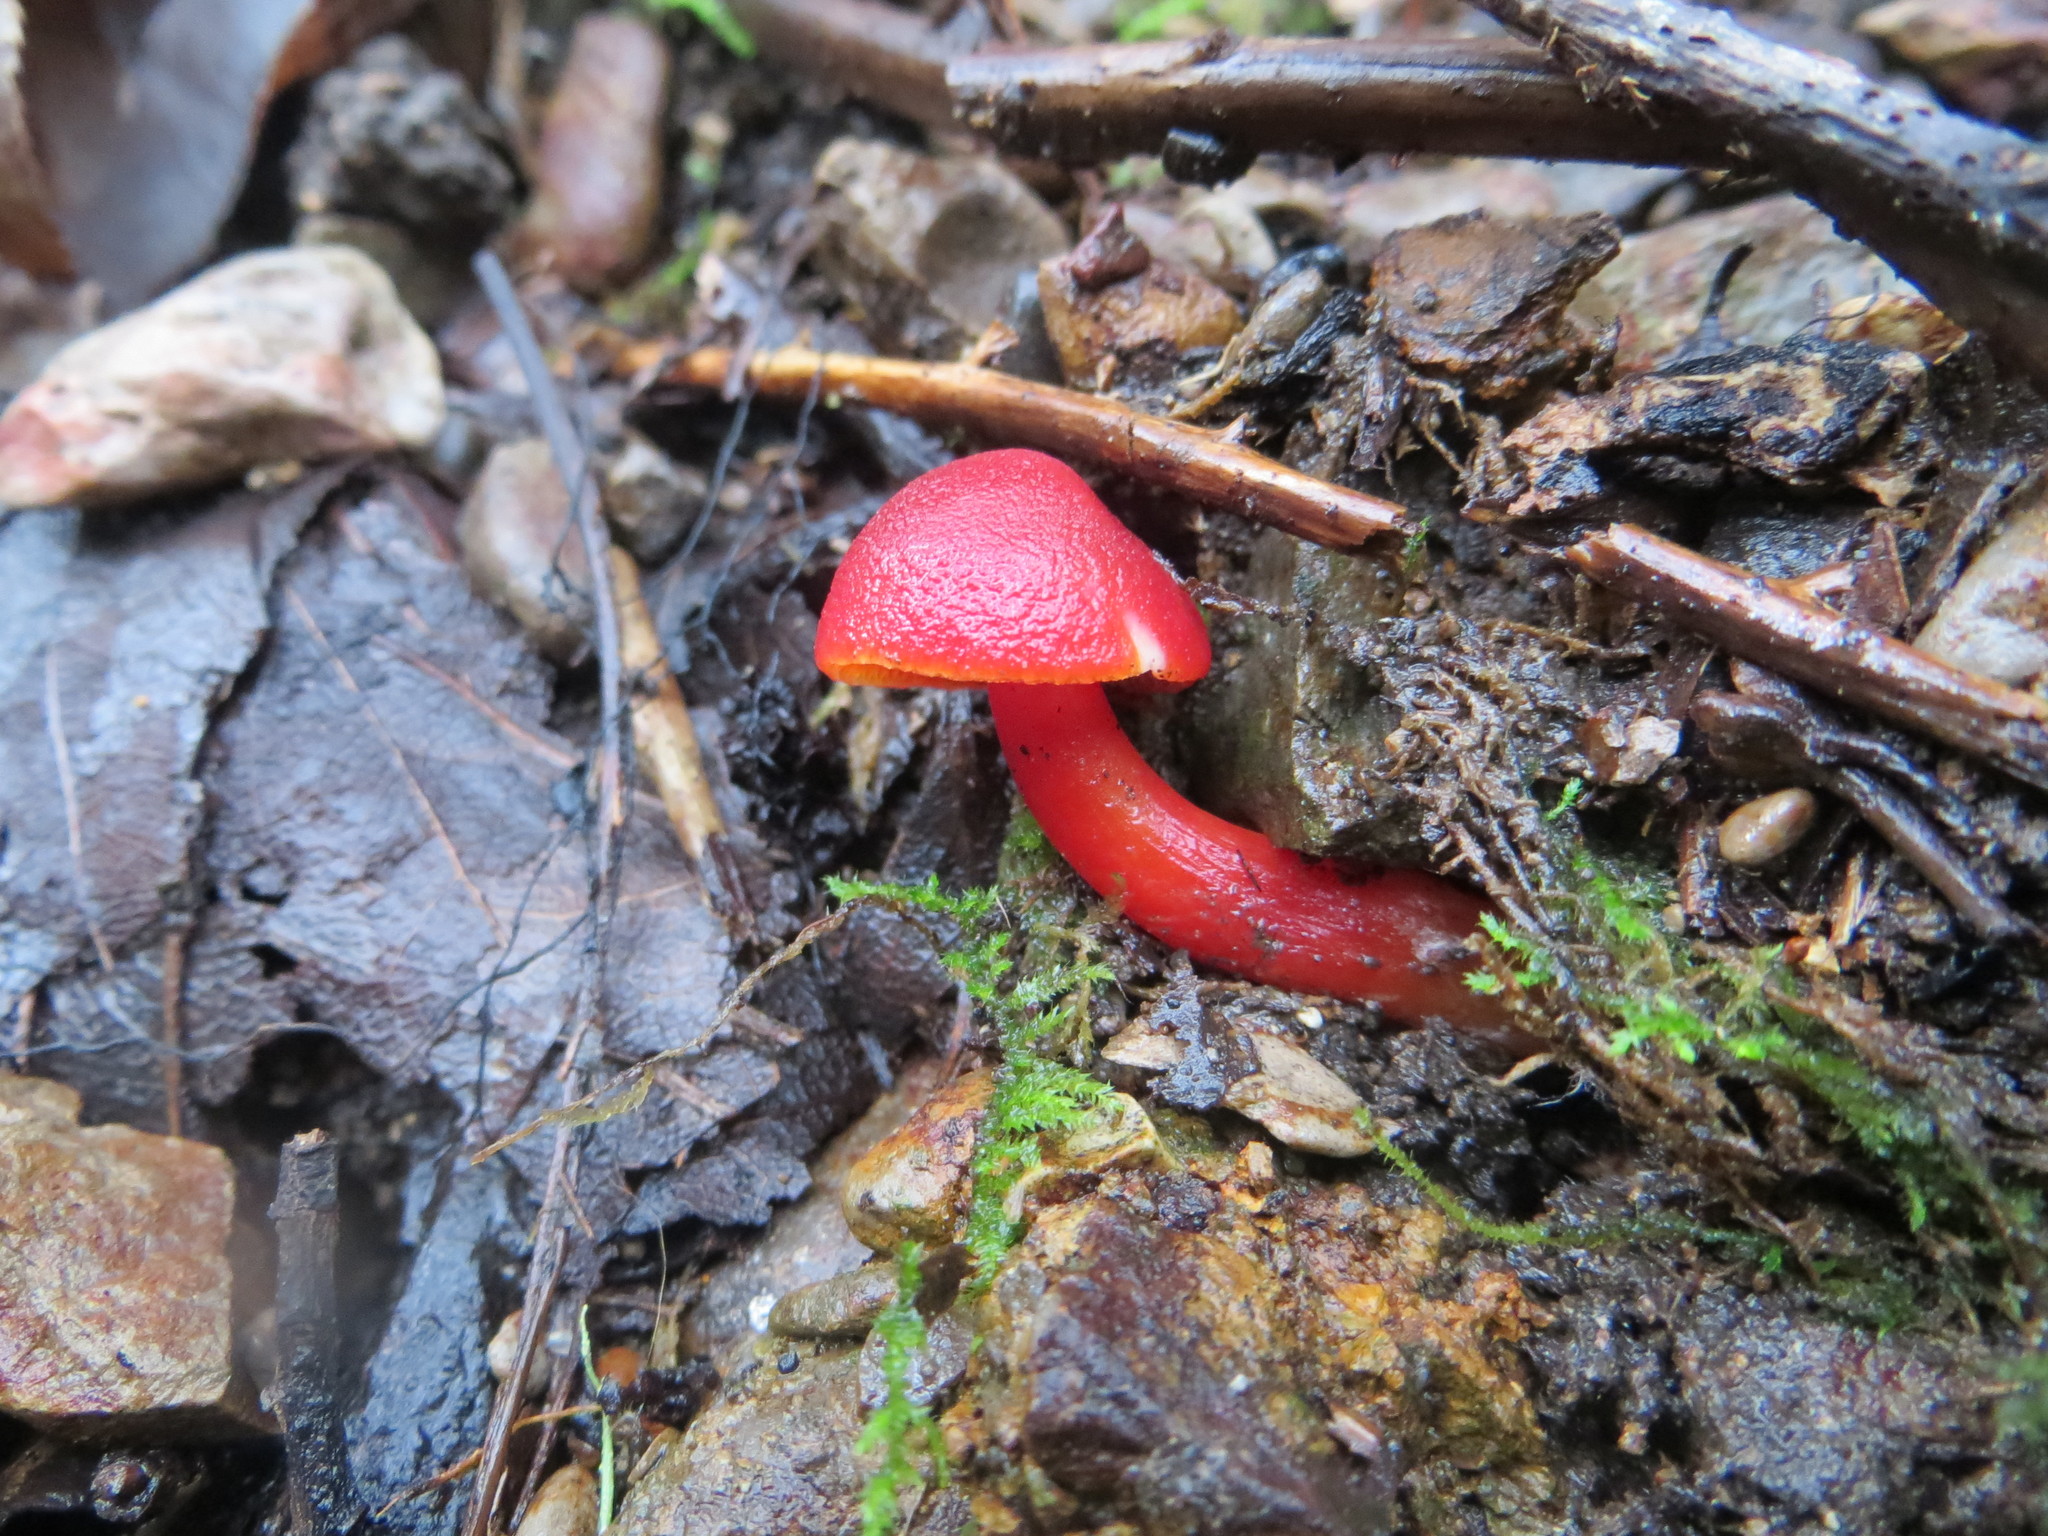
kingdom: Fungi
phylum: Basidiomycota
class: Agaricomycetes
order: Agaricales
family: Hygrophoraceae
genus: Hygrocybe
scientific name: Hygrocybe coccinea
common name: Scarlet hood
